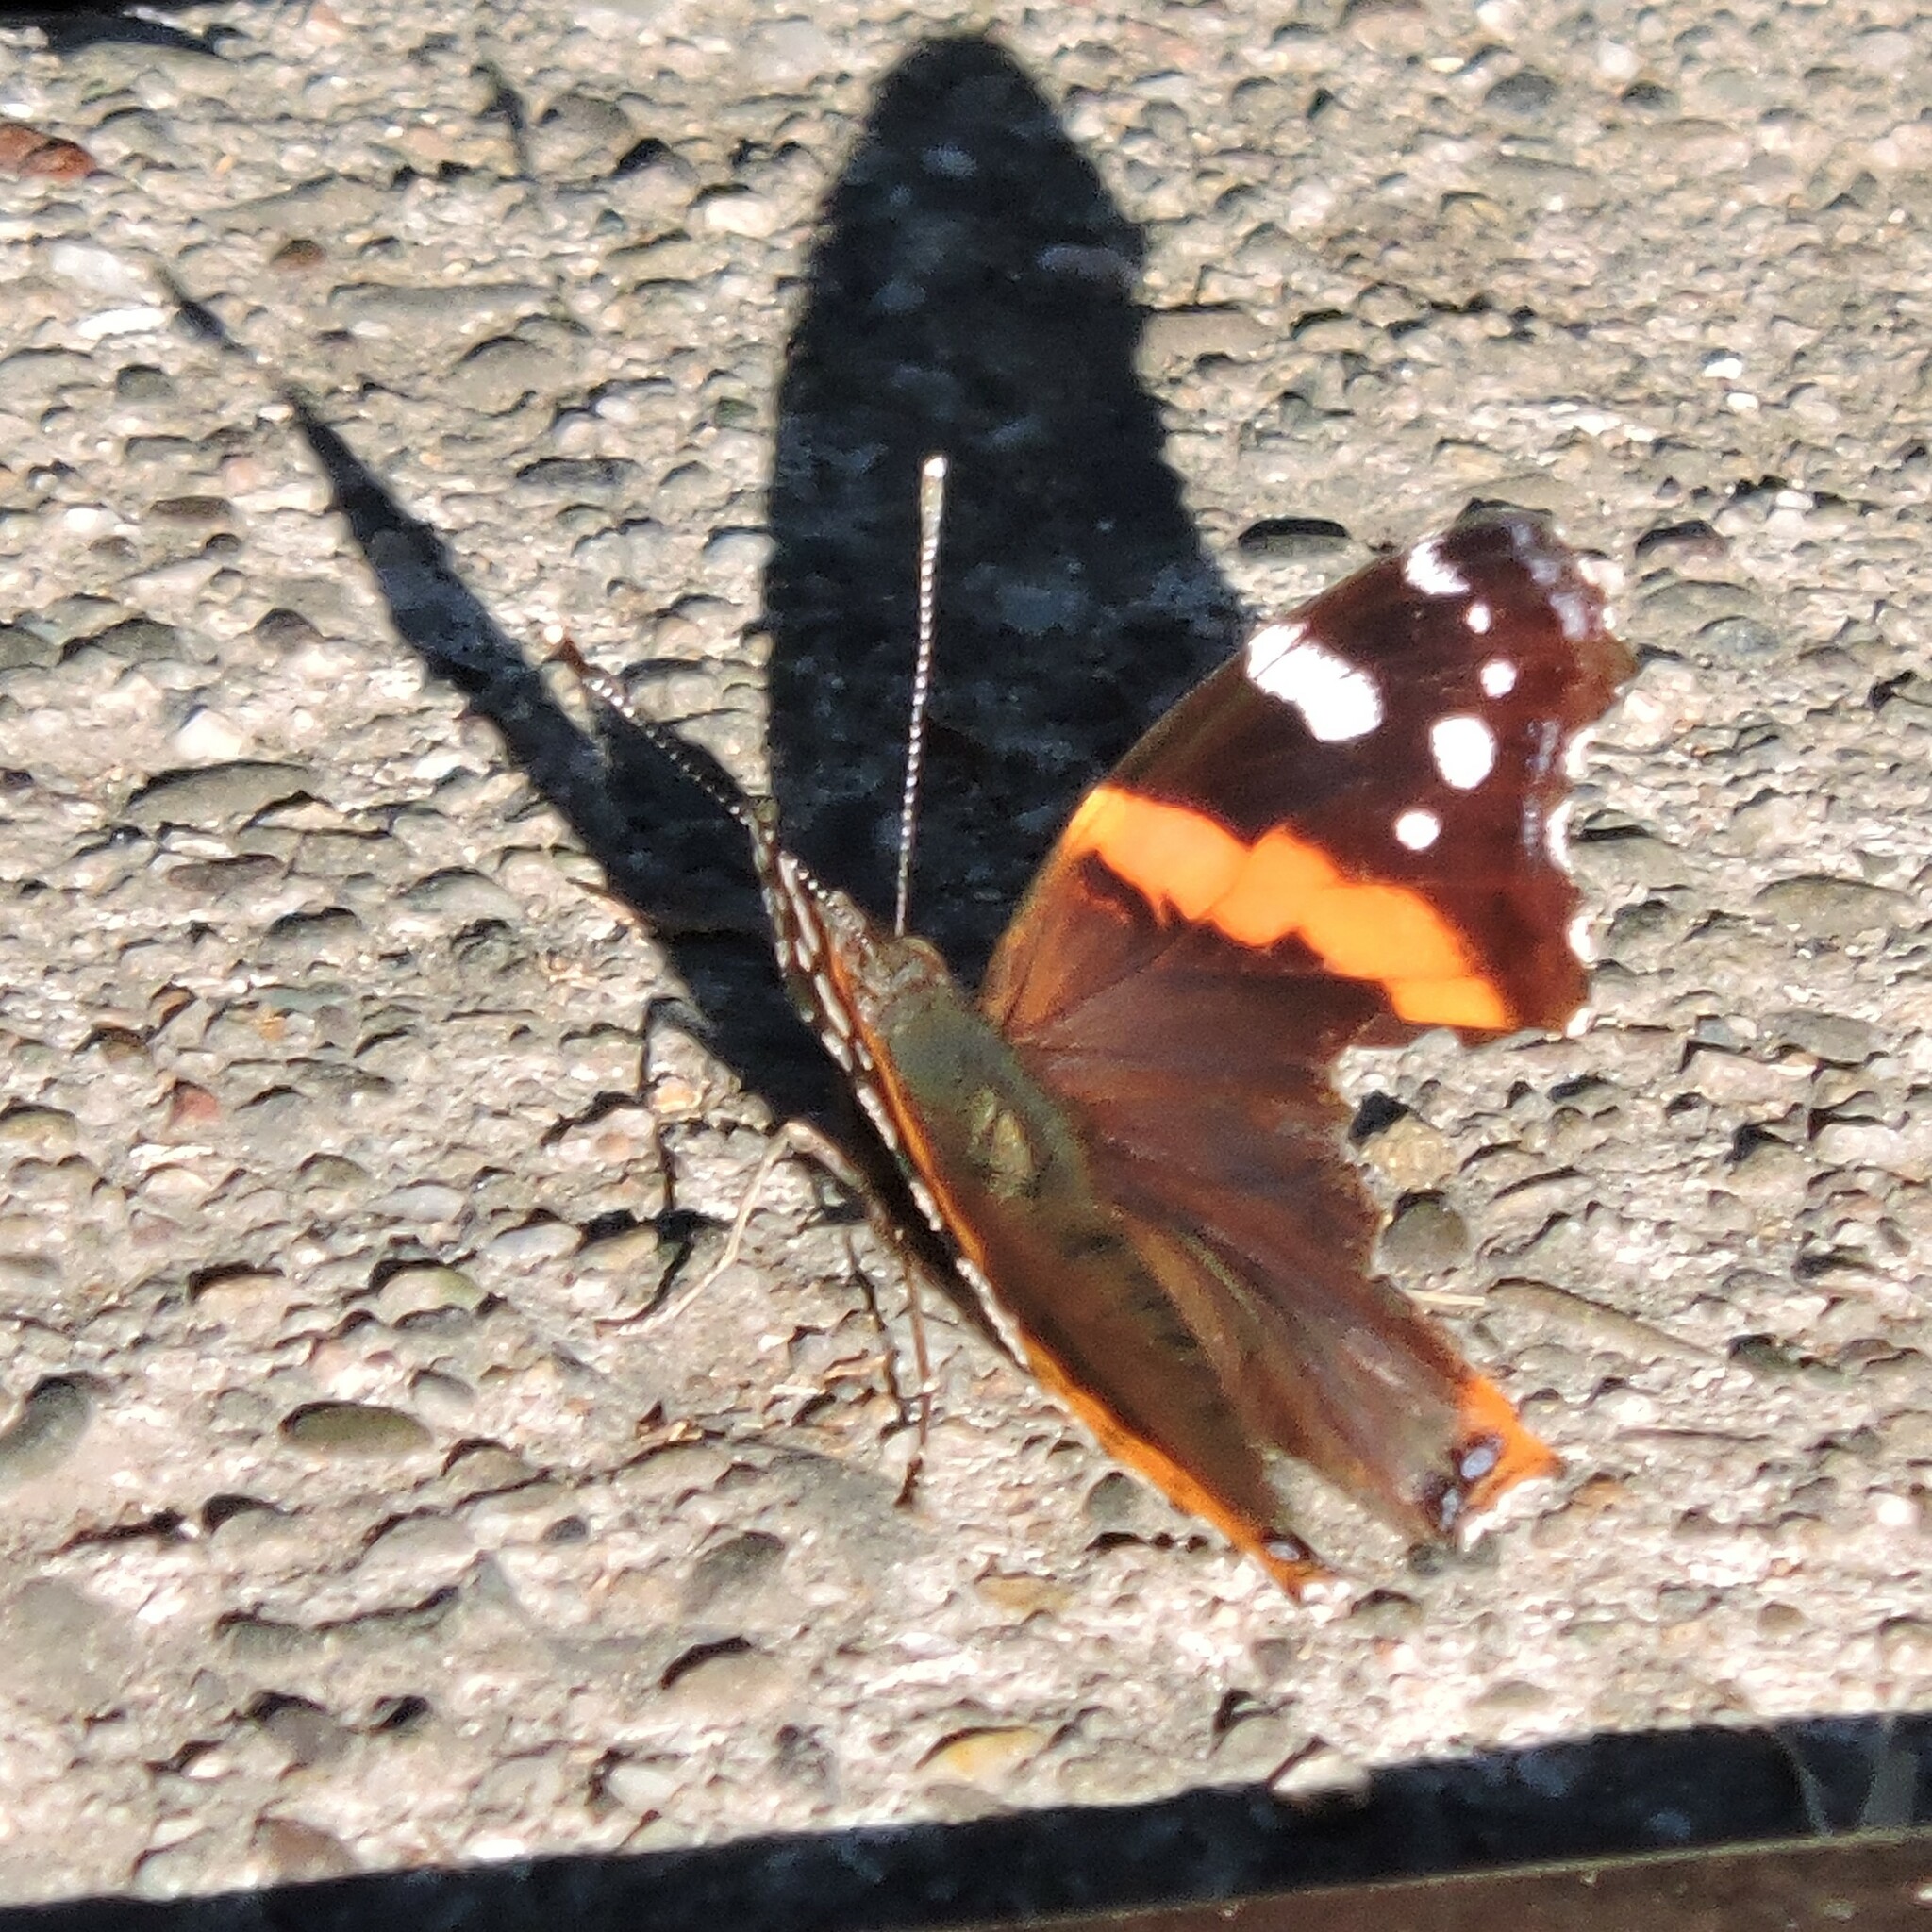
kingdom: Animalia
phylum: Arthropoda
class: Insecta
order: Lepidoptera
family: Nymphalidae
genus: Vanessa
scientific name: Vanessa atalanta
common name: Red admiral
